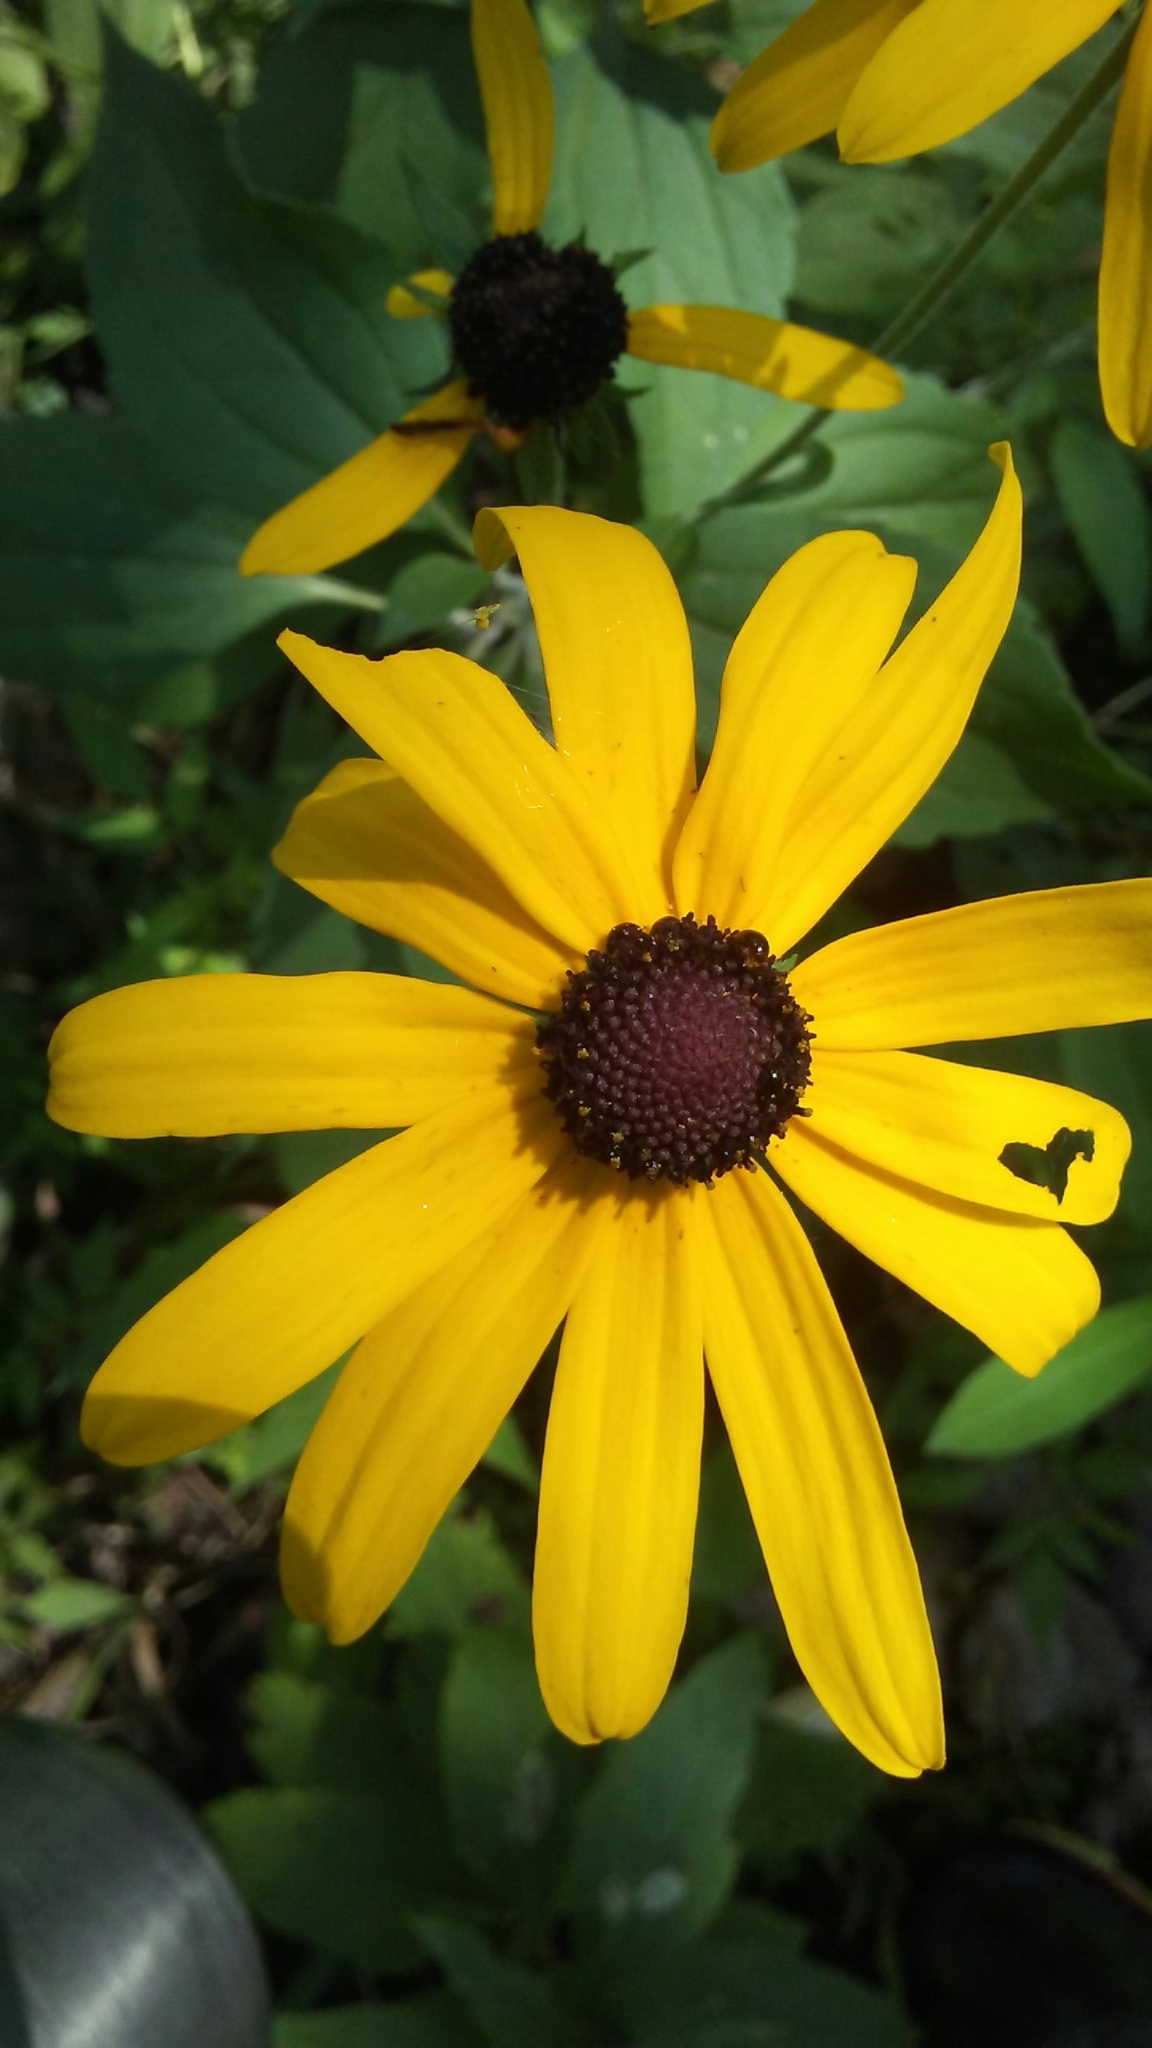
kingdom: Plantae
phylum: Tracheophyta
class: Magnoliopsida
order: Asterales
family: Asteraceae
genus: Rudbeckia
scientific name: Rudbeckia subtomentosa
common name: Sweet coneflower
